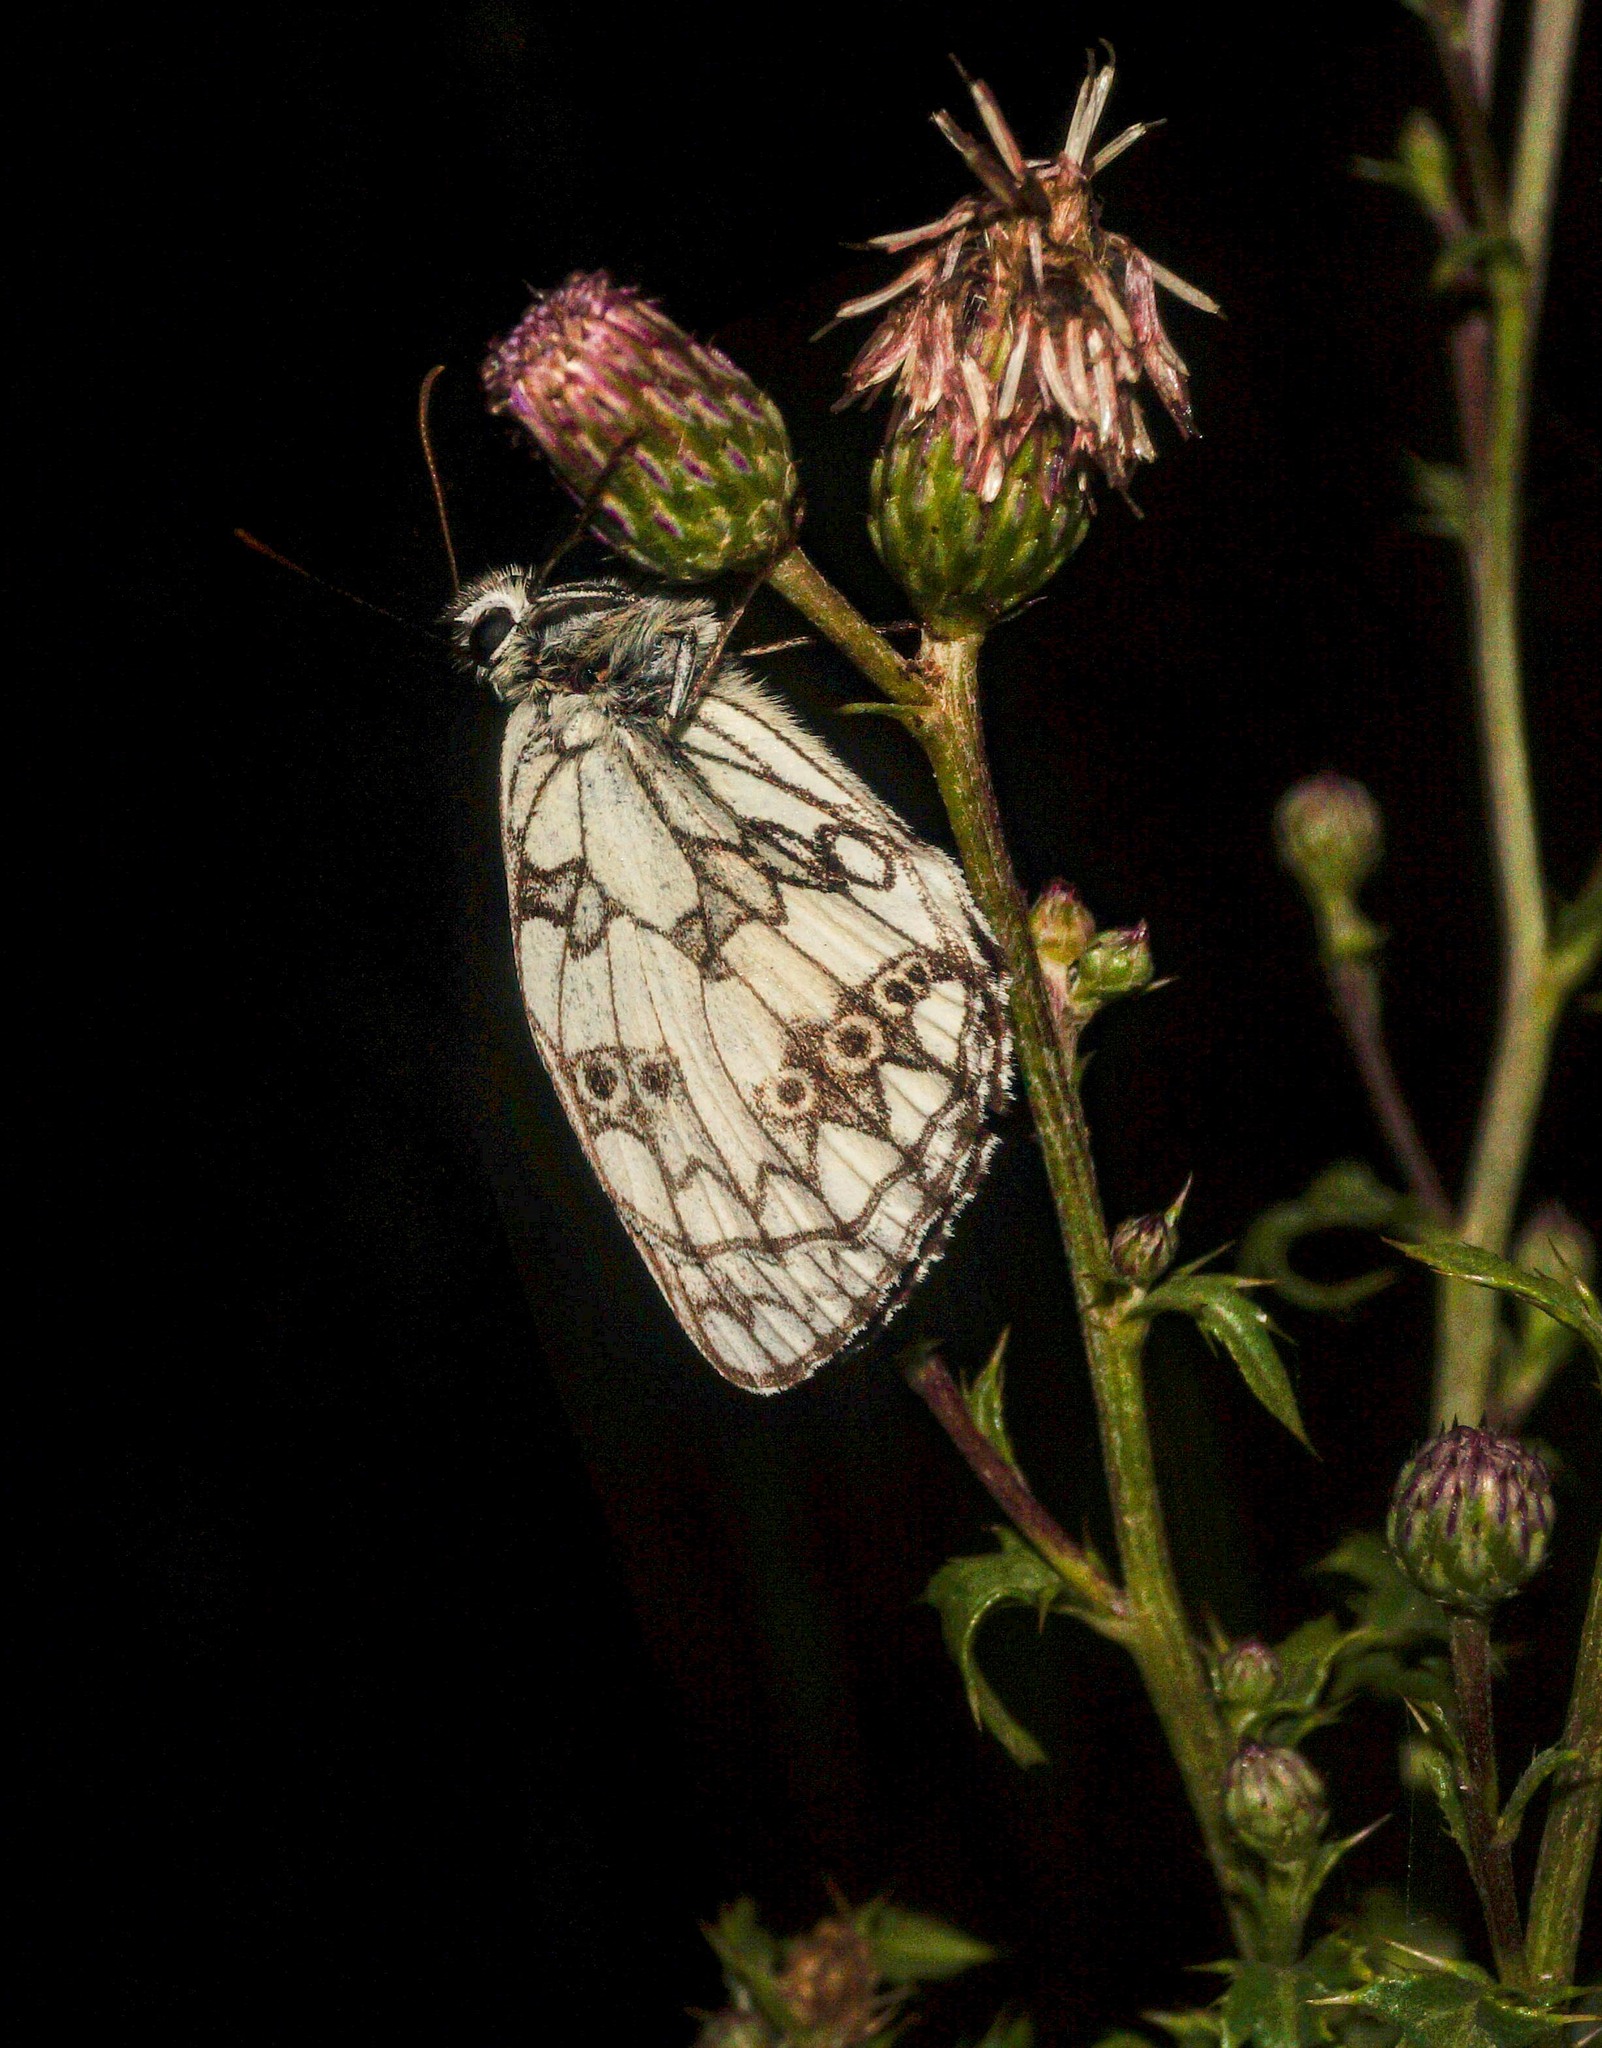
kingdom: Animalia
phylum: Arthropoda
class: Insecta
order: Lepidoptera
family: Nymphalidae
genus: Melanargia
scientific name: Melanargia galathea
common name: Marbled white
